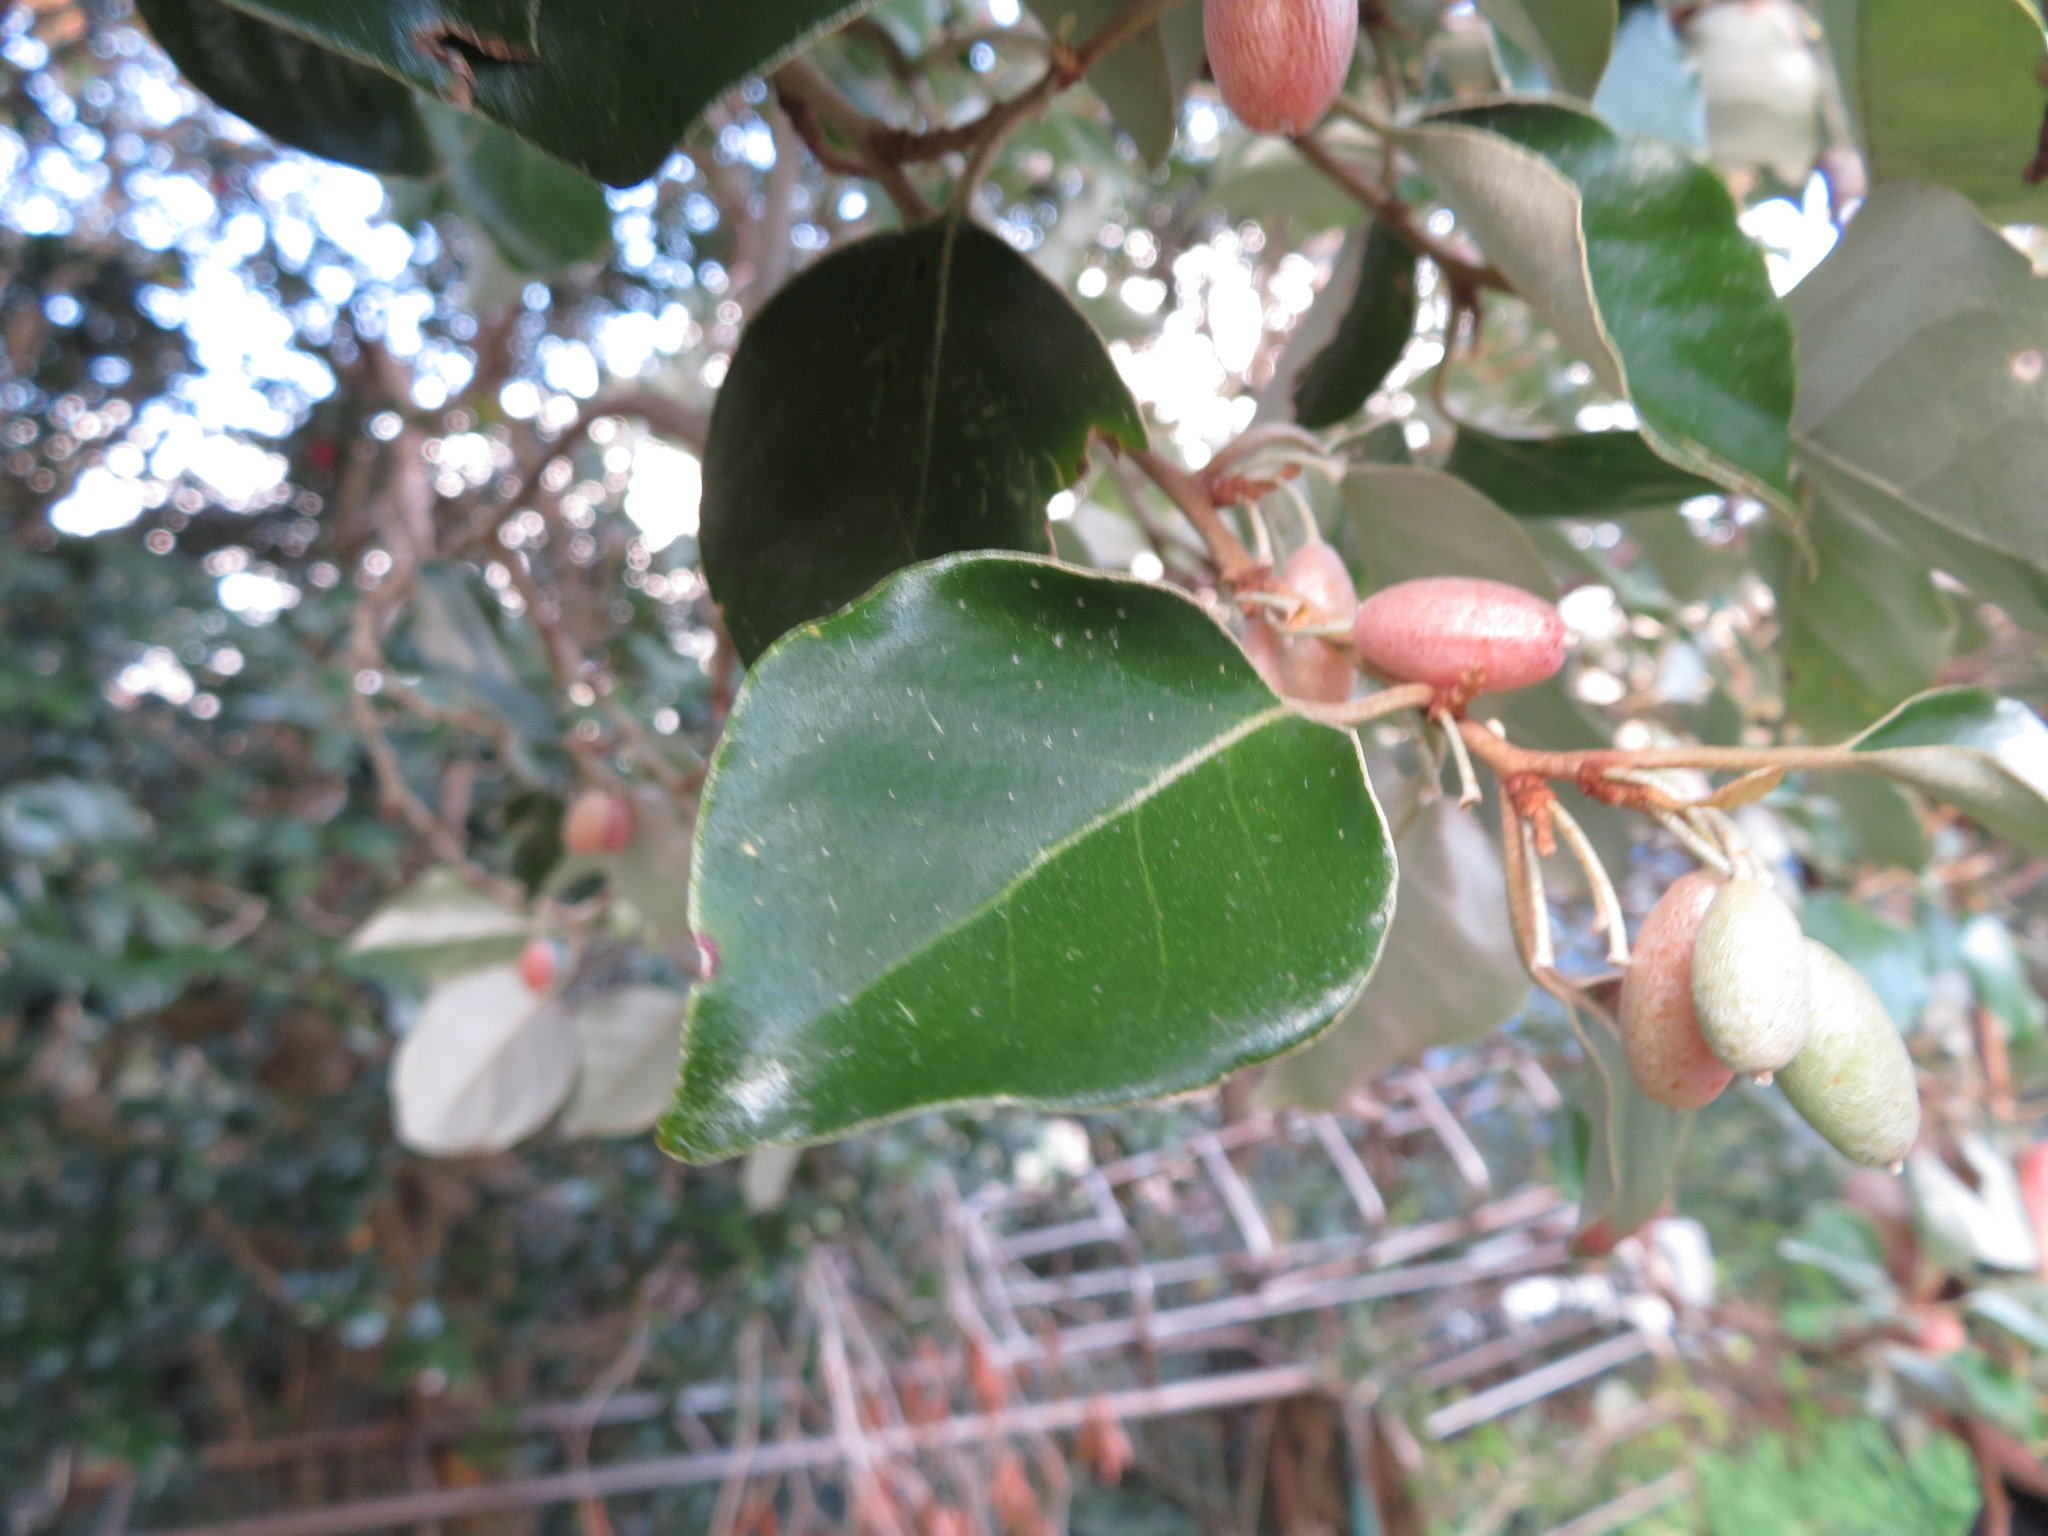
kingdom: Plantae
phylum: Tracheophyta
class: Magnoliopsida
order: Rosales
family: Elaeagnaceae
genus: Elaeagnus
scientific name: Elaeagnus macrophylla
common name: Broad-leaved oleaster
